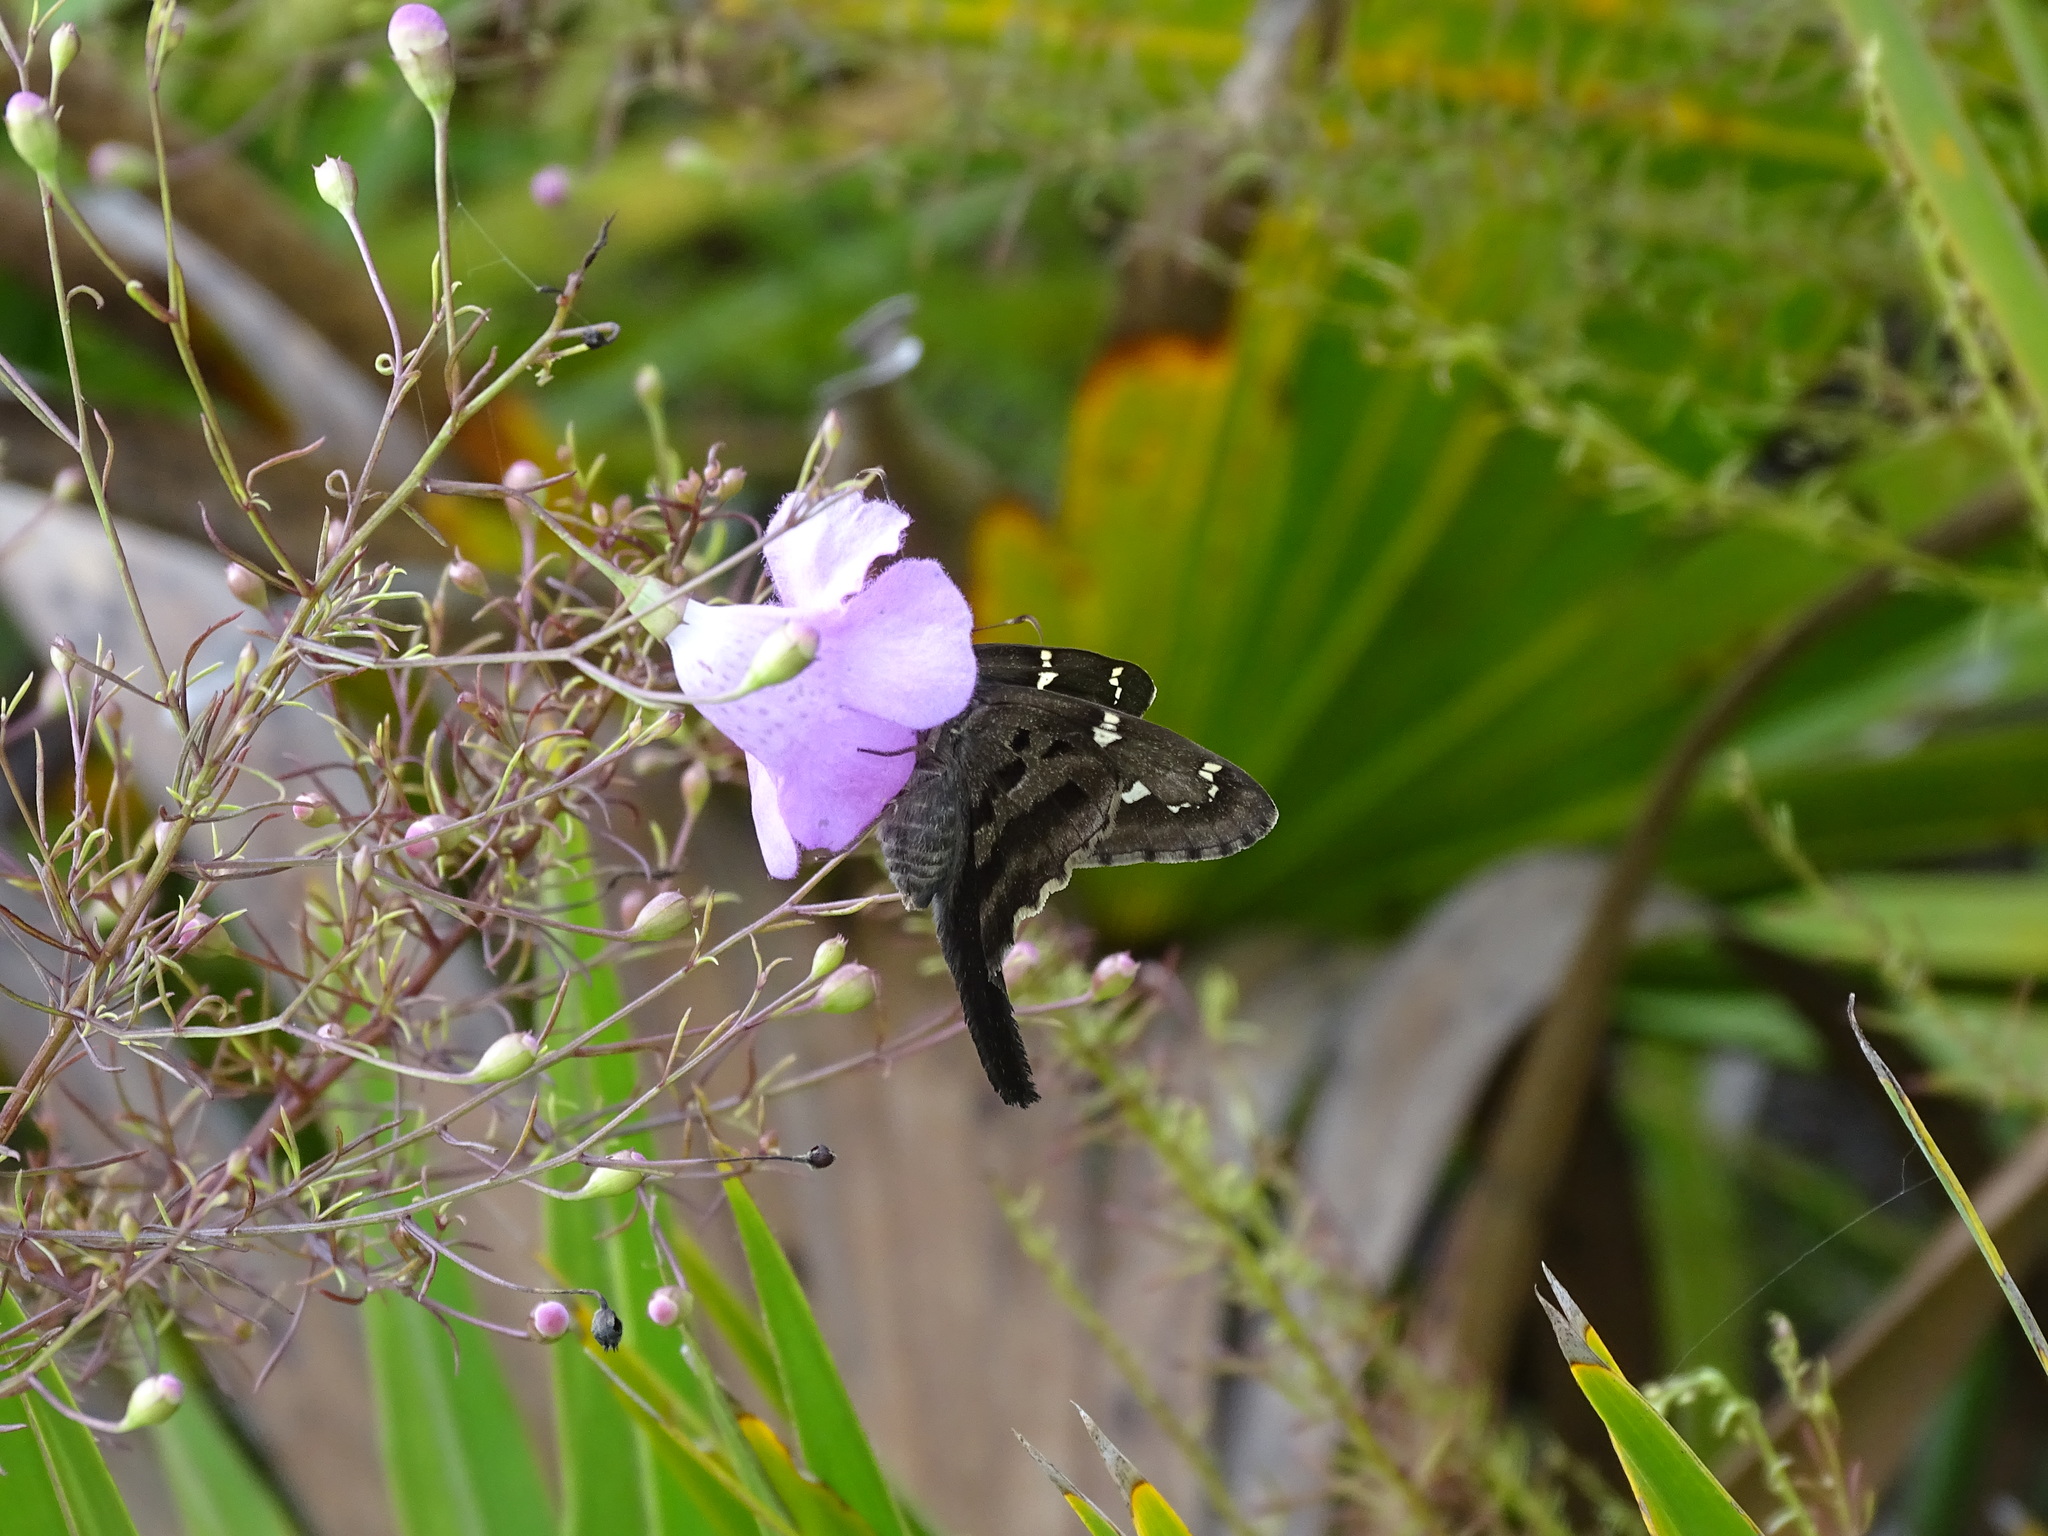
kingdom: Animalia
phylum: Arthropoda
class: Insecta
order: Lepidoptera
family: Hesperiidae
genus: Urbanus
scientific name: Urbanus proteus
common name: Long-tailed skipper
